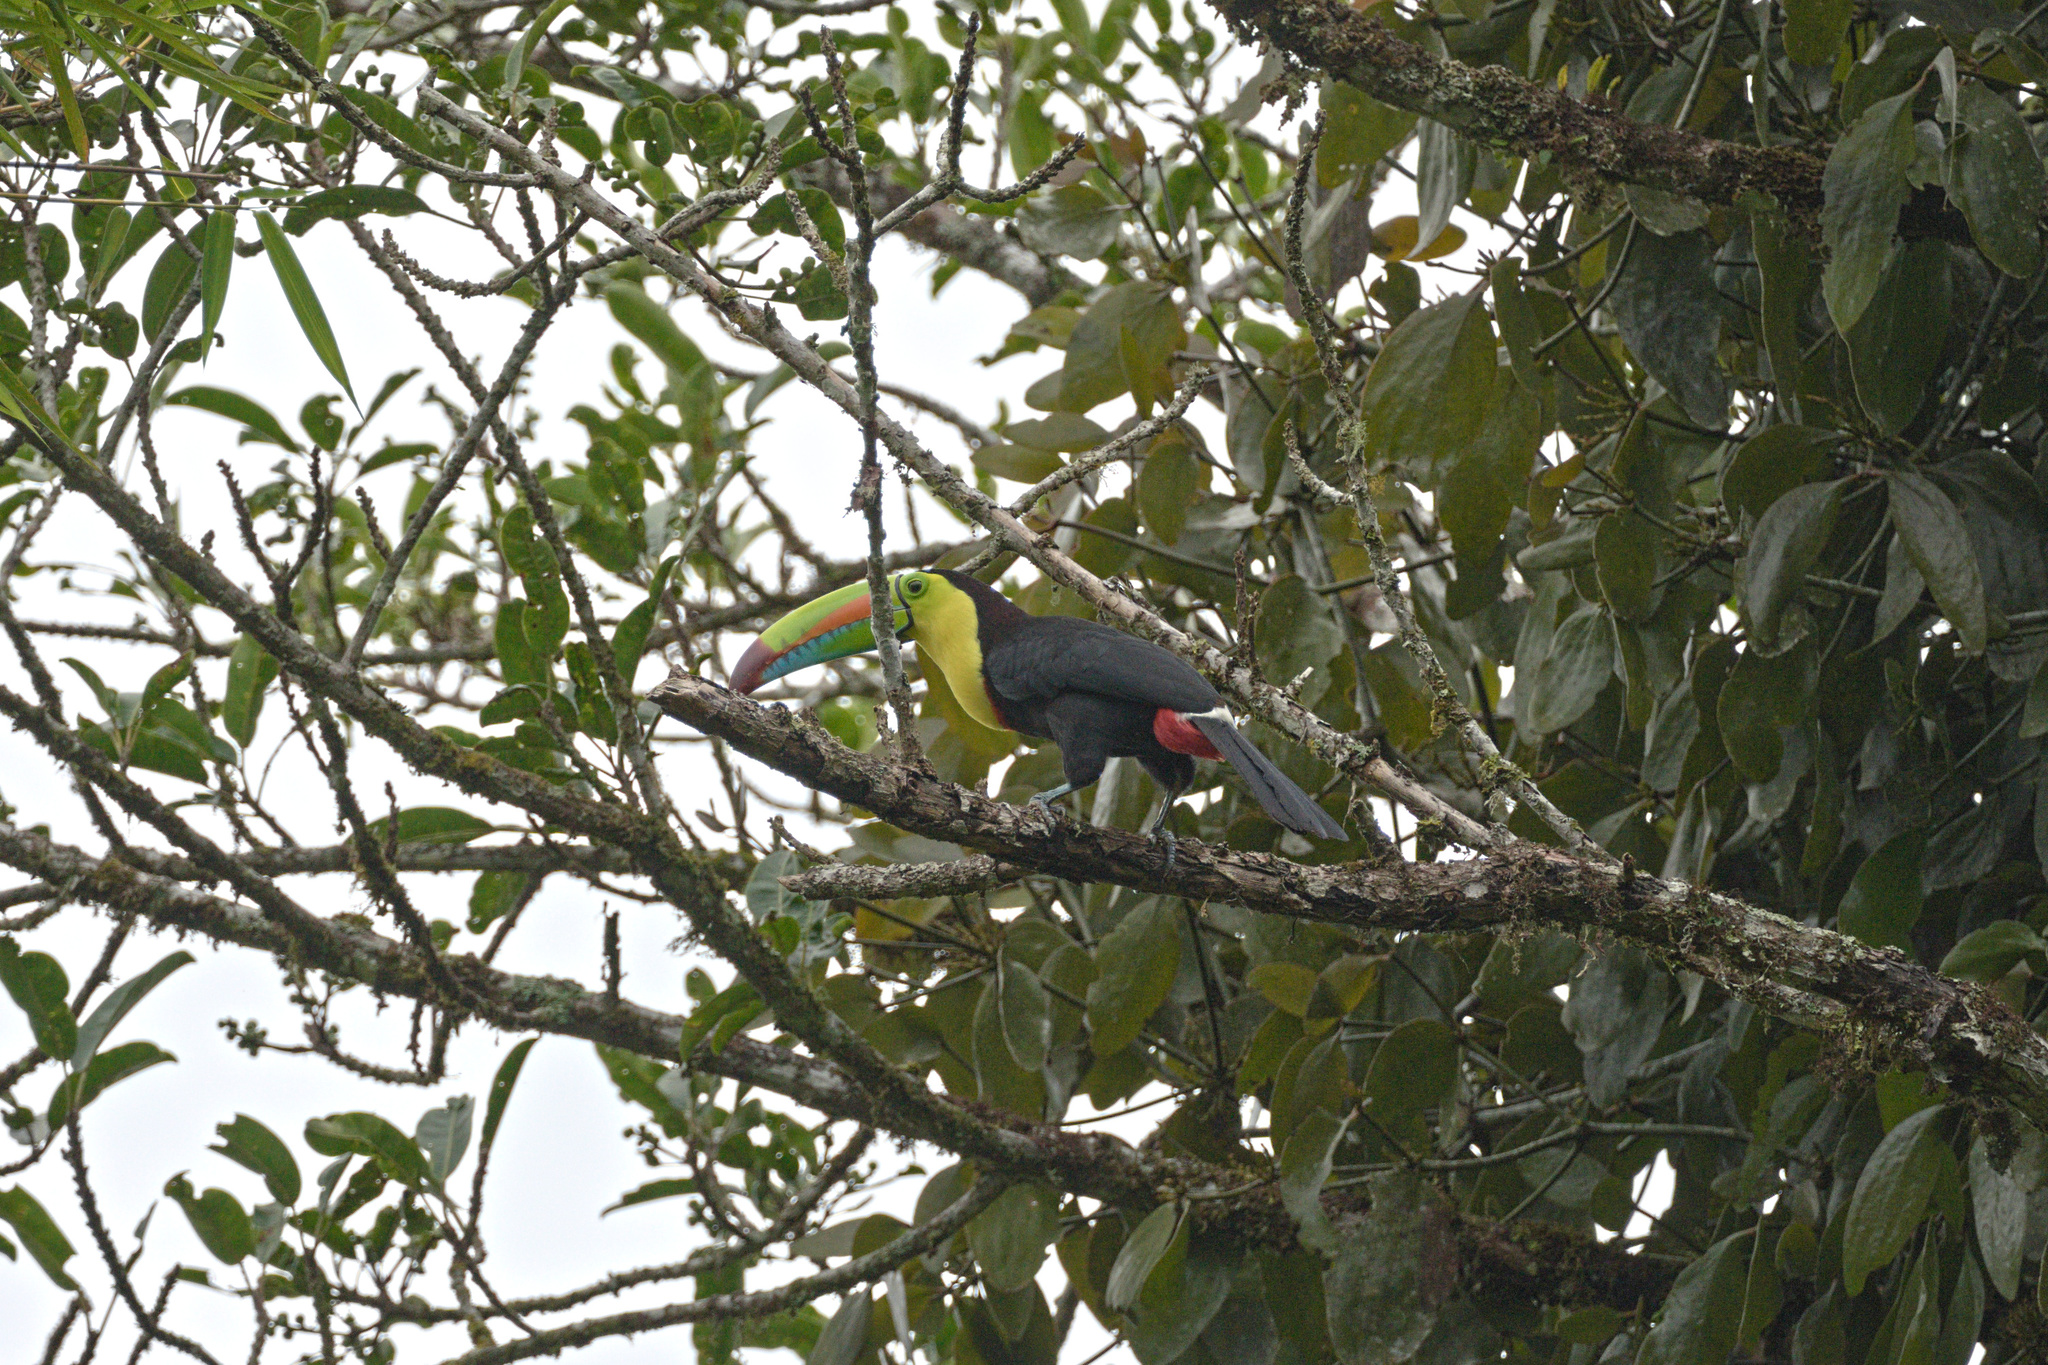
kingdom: Animalia
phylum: Chordata
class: Aves
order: Piciformes
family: Ramphastidae
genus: Ramphastos
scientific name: Ramphastos sulfuratus
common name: Keel-billed toucan
